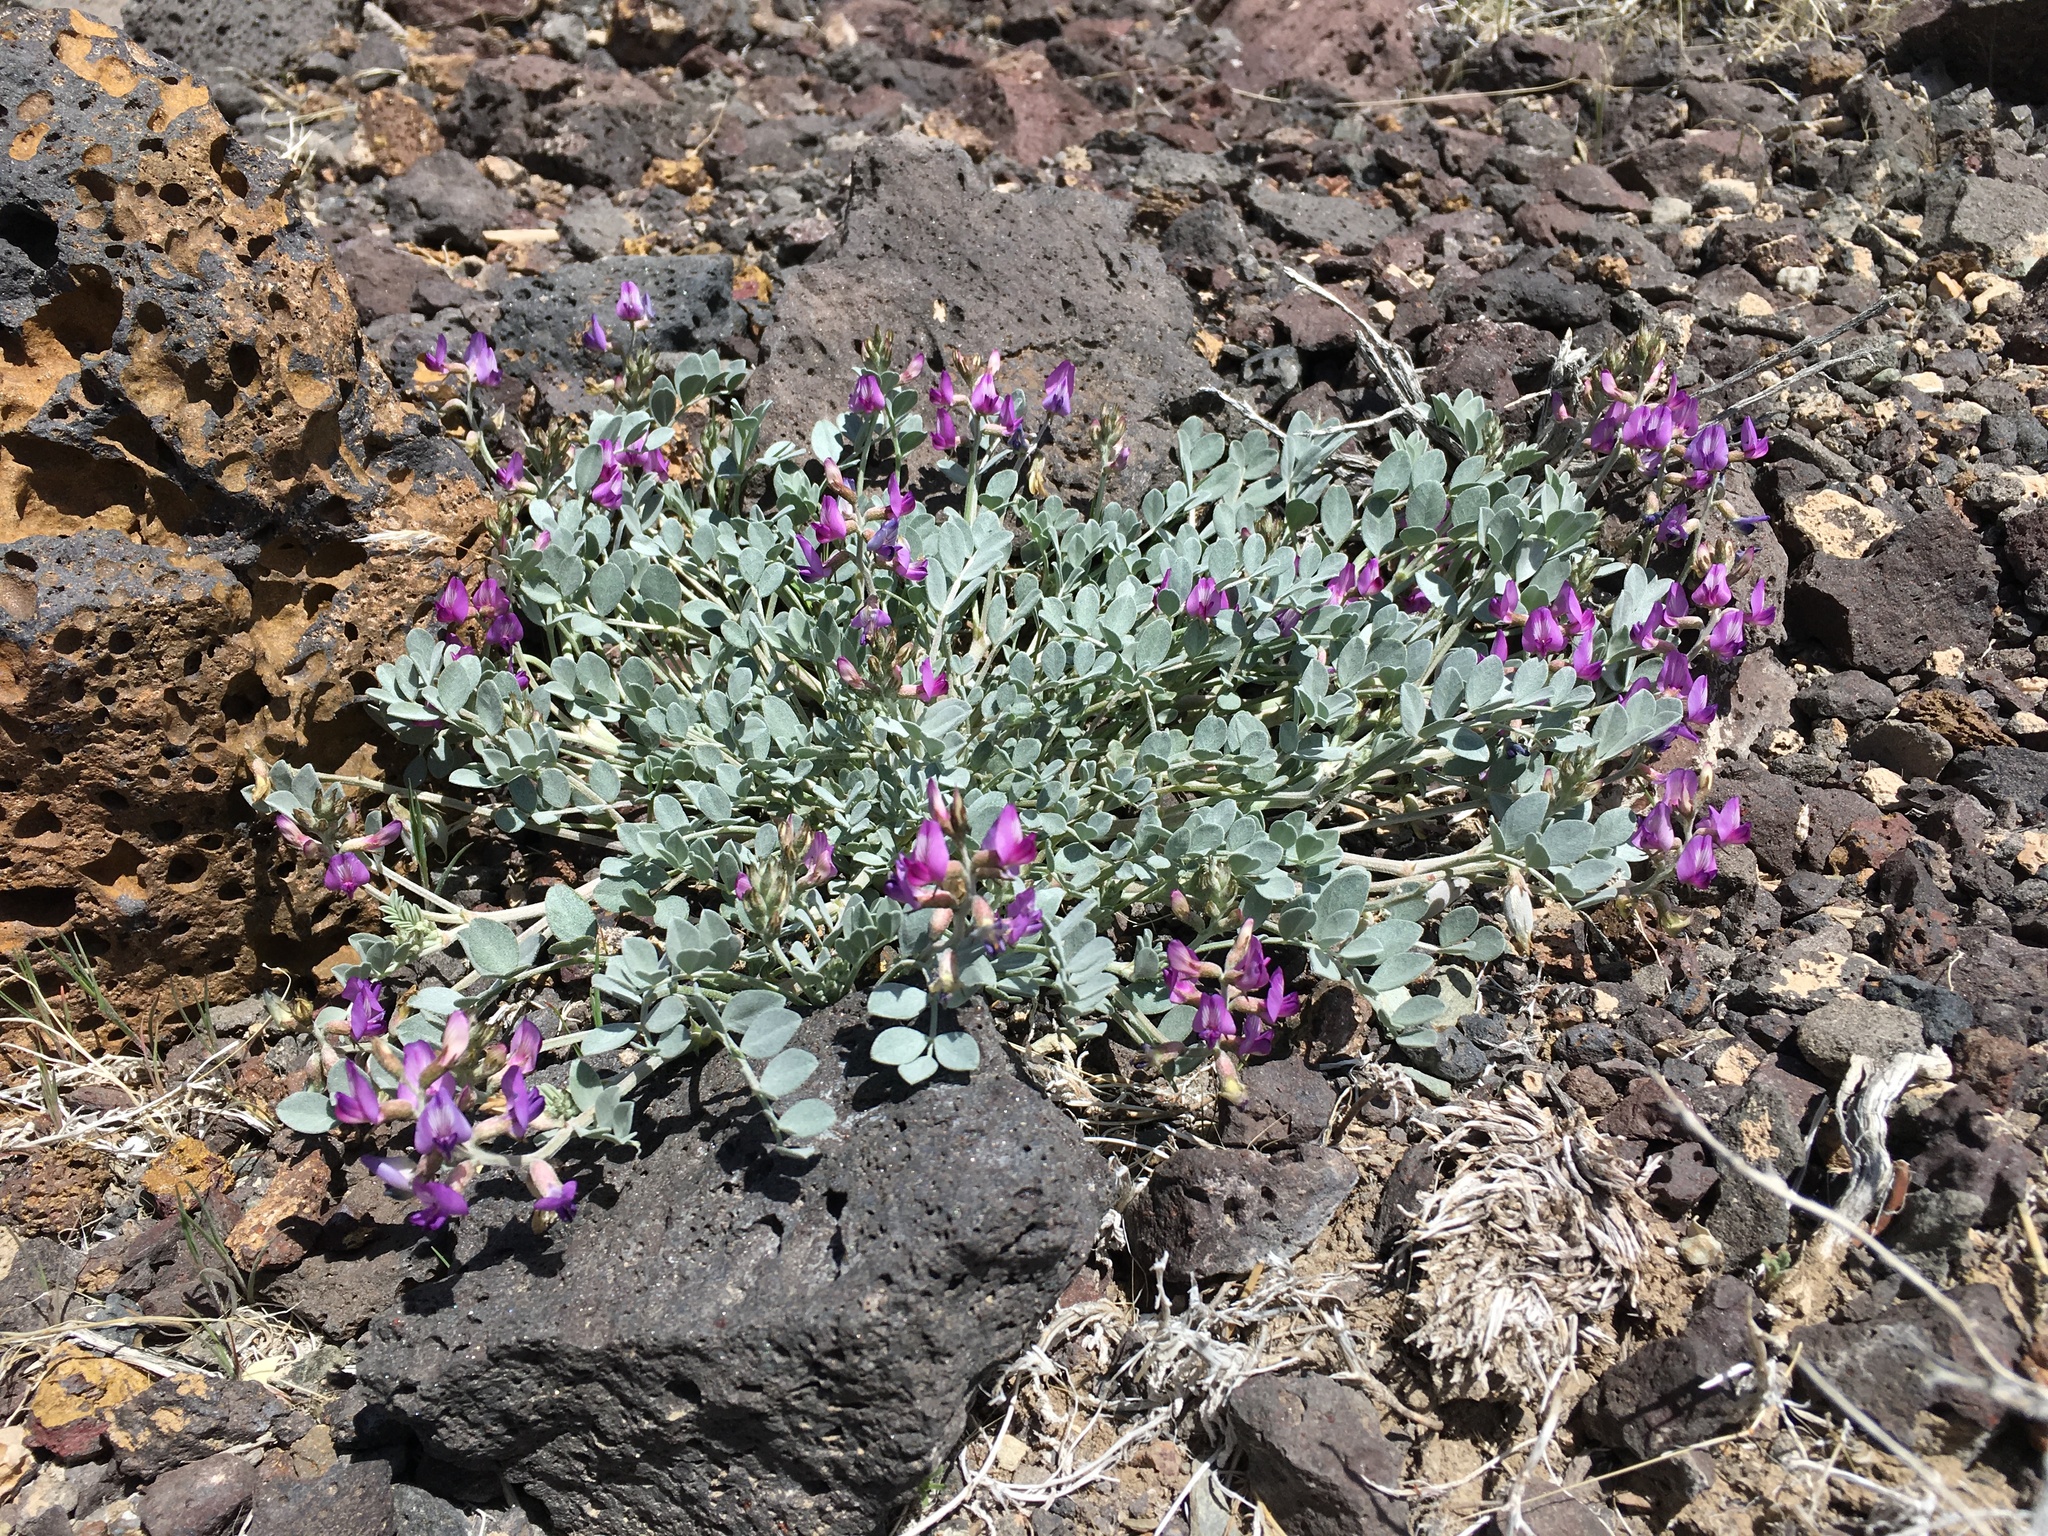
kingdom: Plantae
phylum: Tracheophyta
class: Magnoliopsida
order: Fabales
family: Fabaceae
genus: Astragalus
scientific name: Astragalus mohavensis
